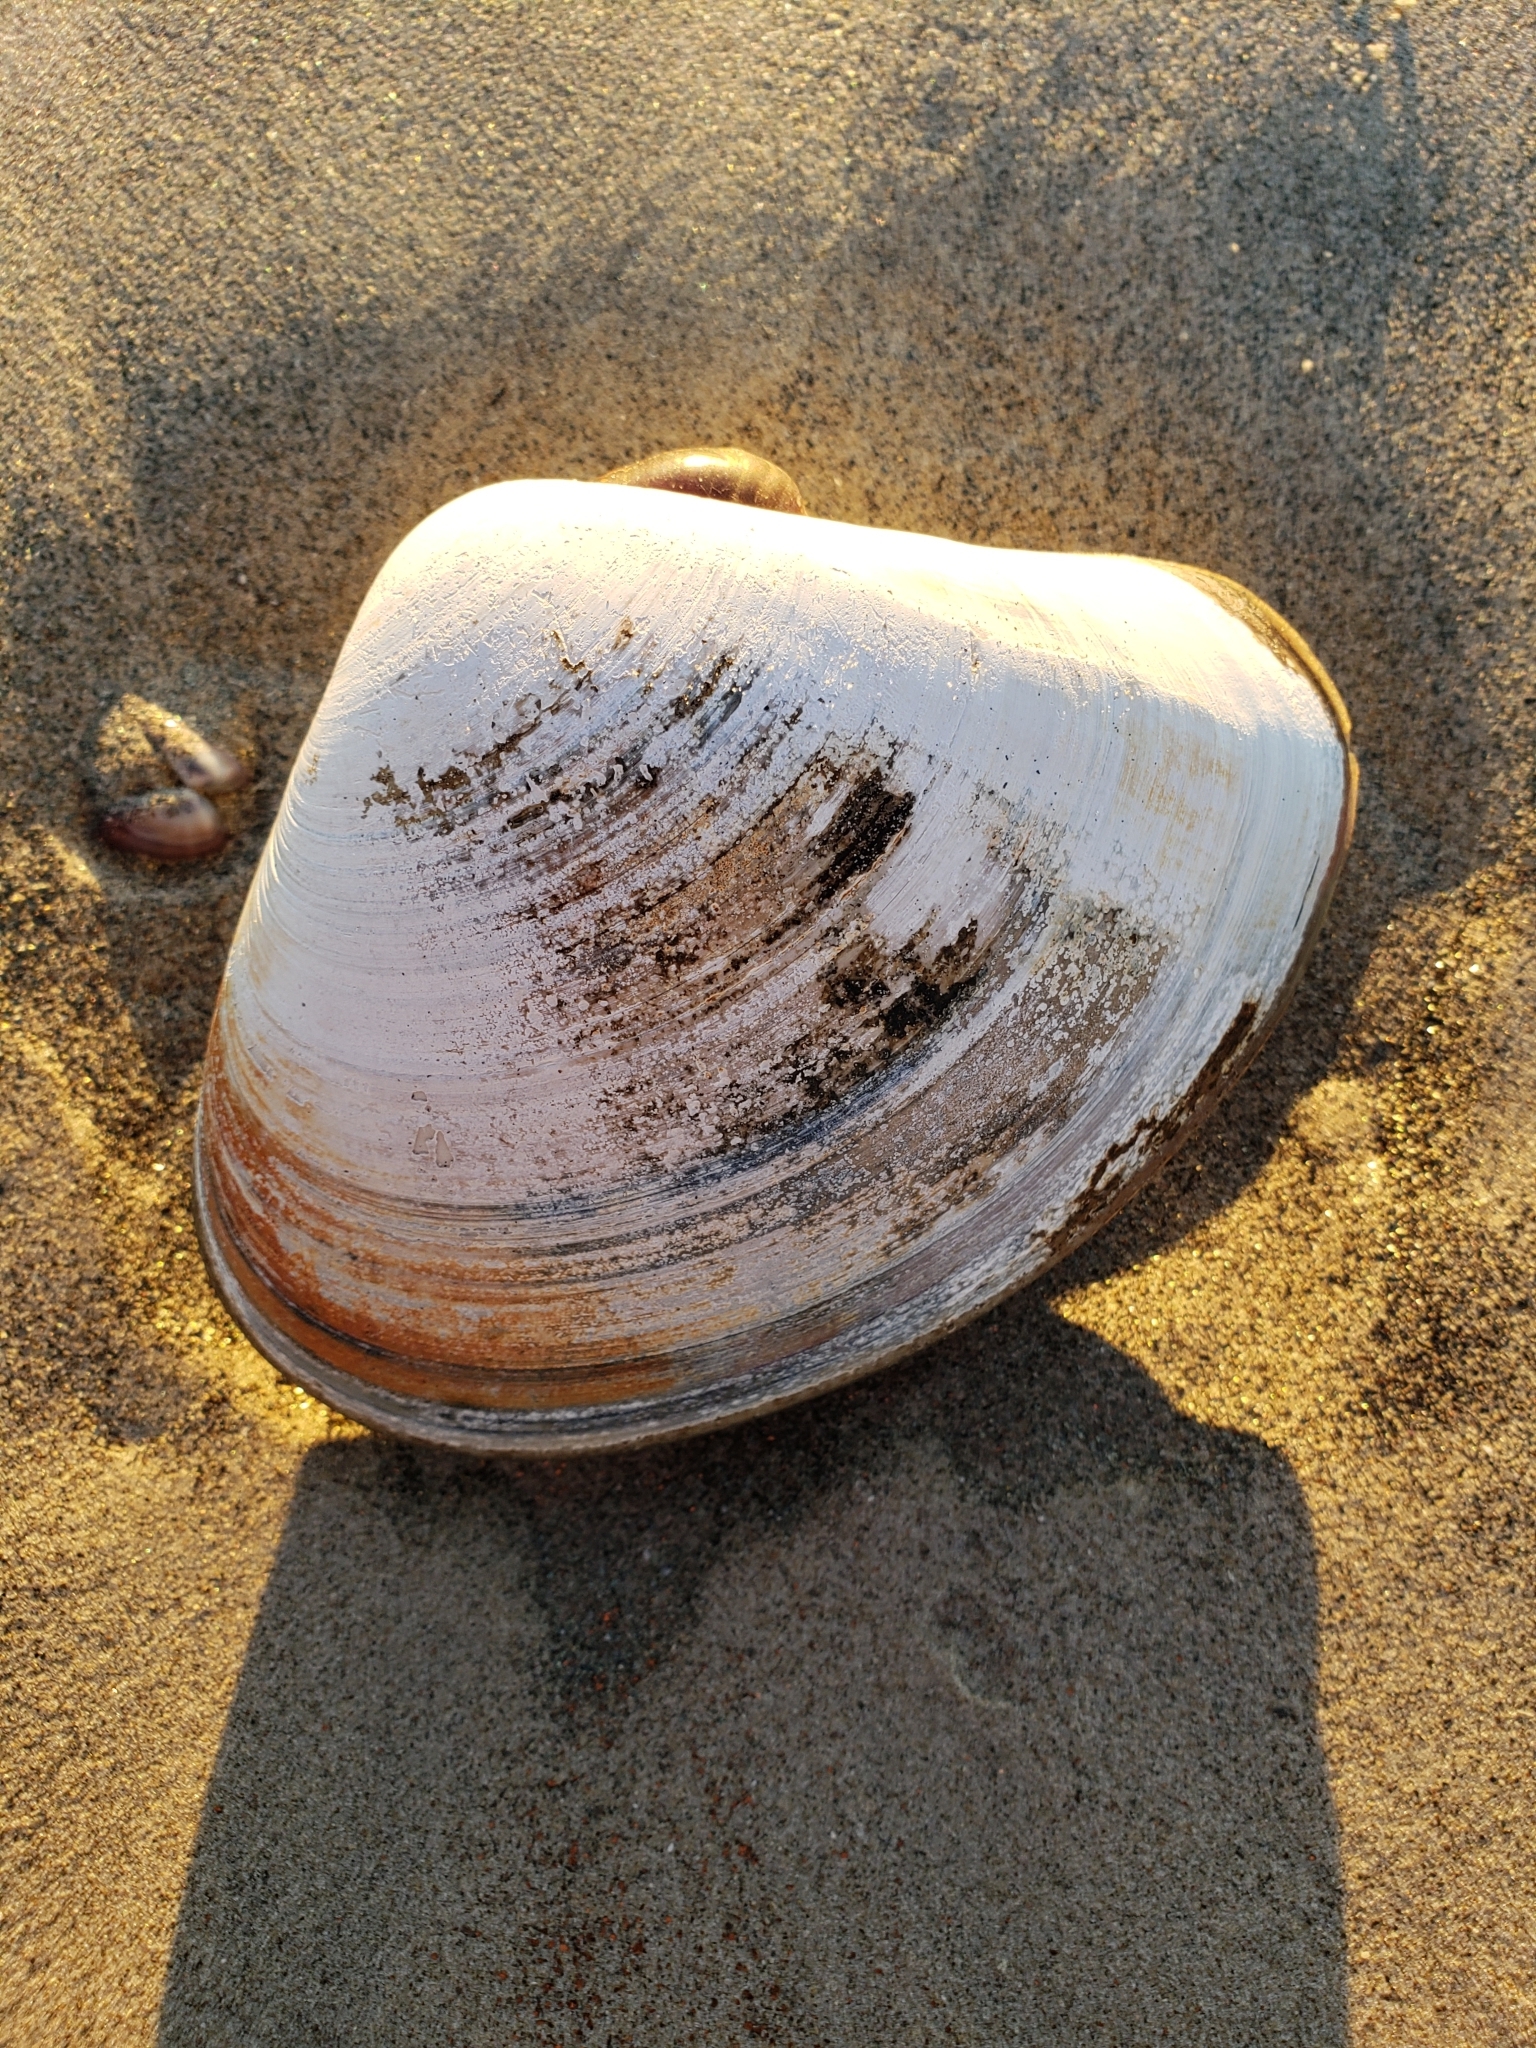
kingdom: Animalia
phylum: Mollusca
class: Bivalvia
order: Venerida
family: Veneridae
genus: Tivela
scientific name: Tivela stultorum
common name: Pismo clam
